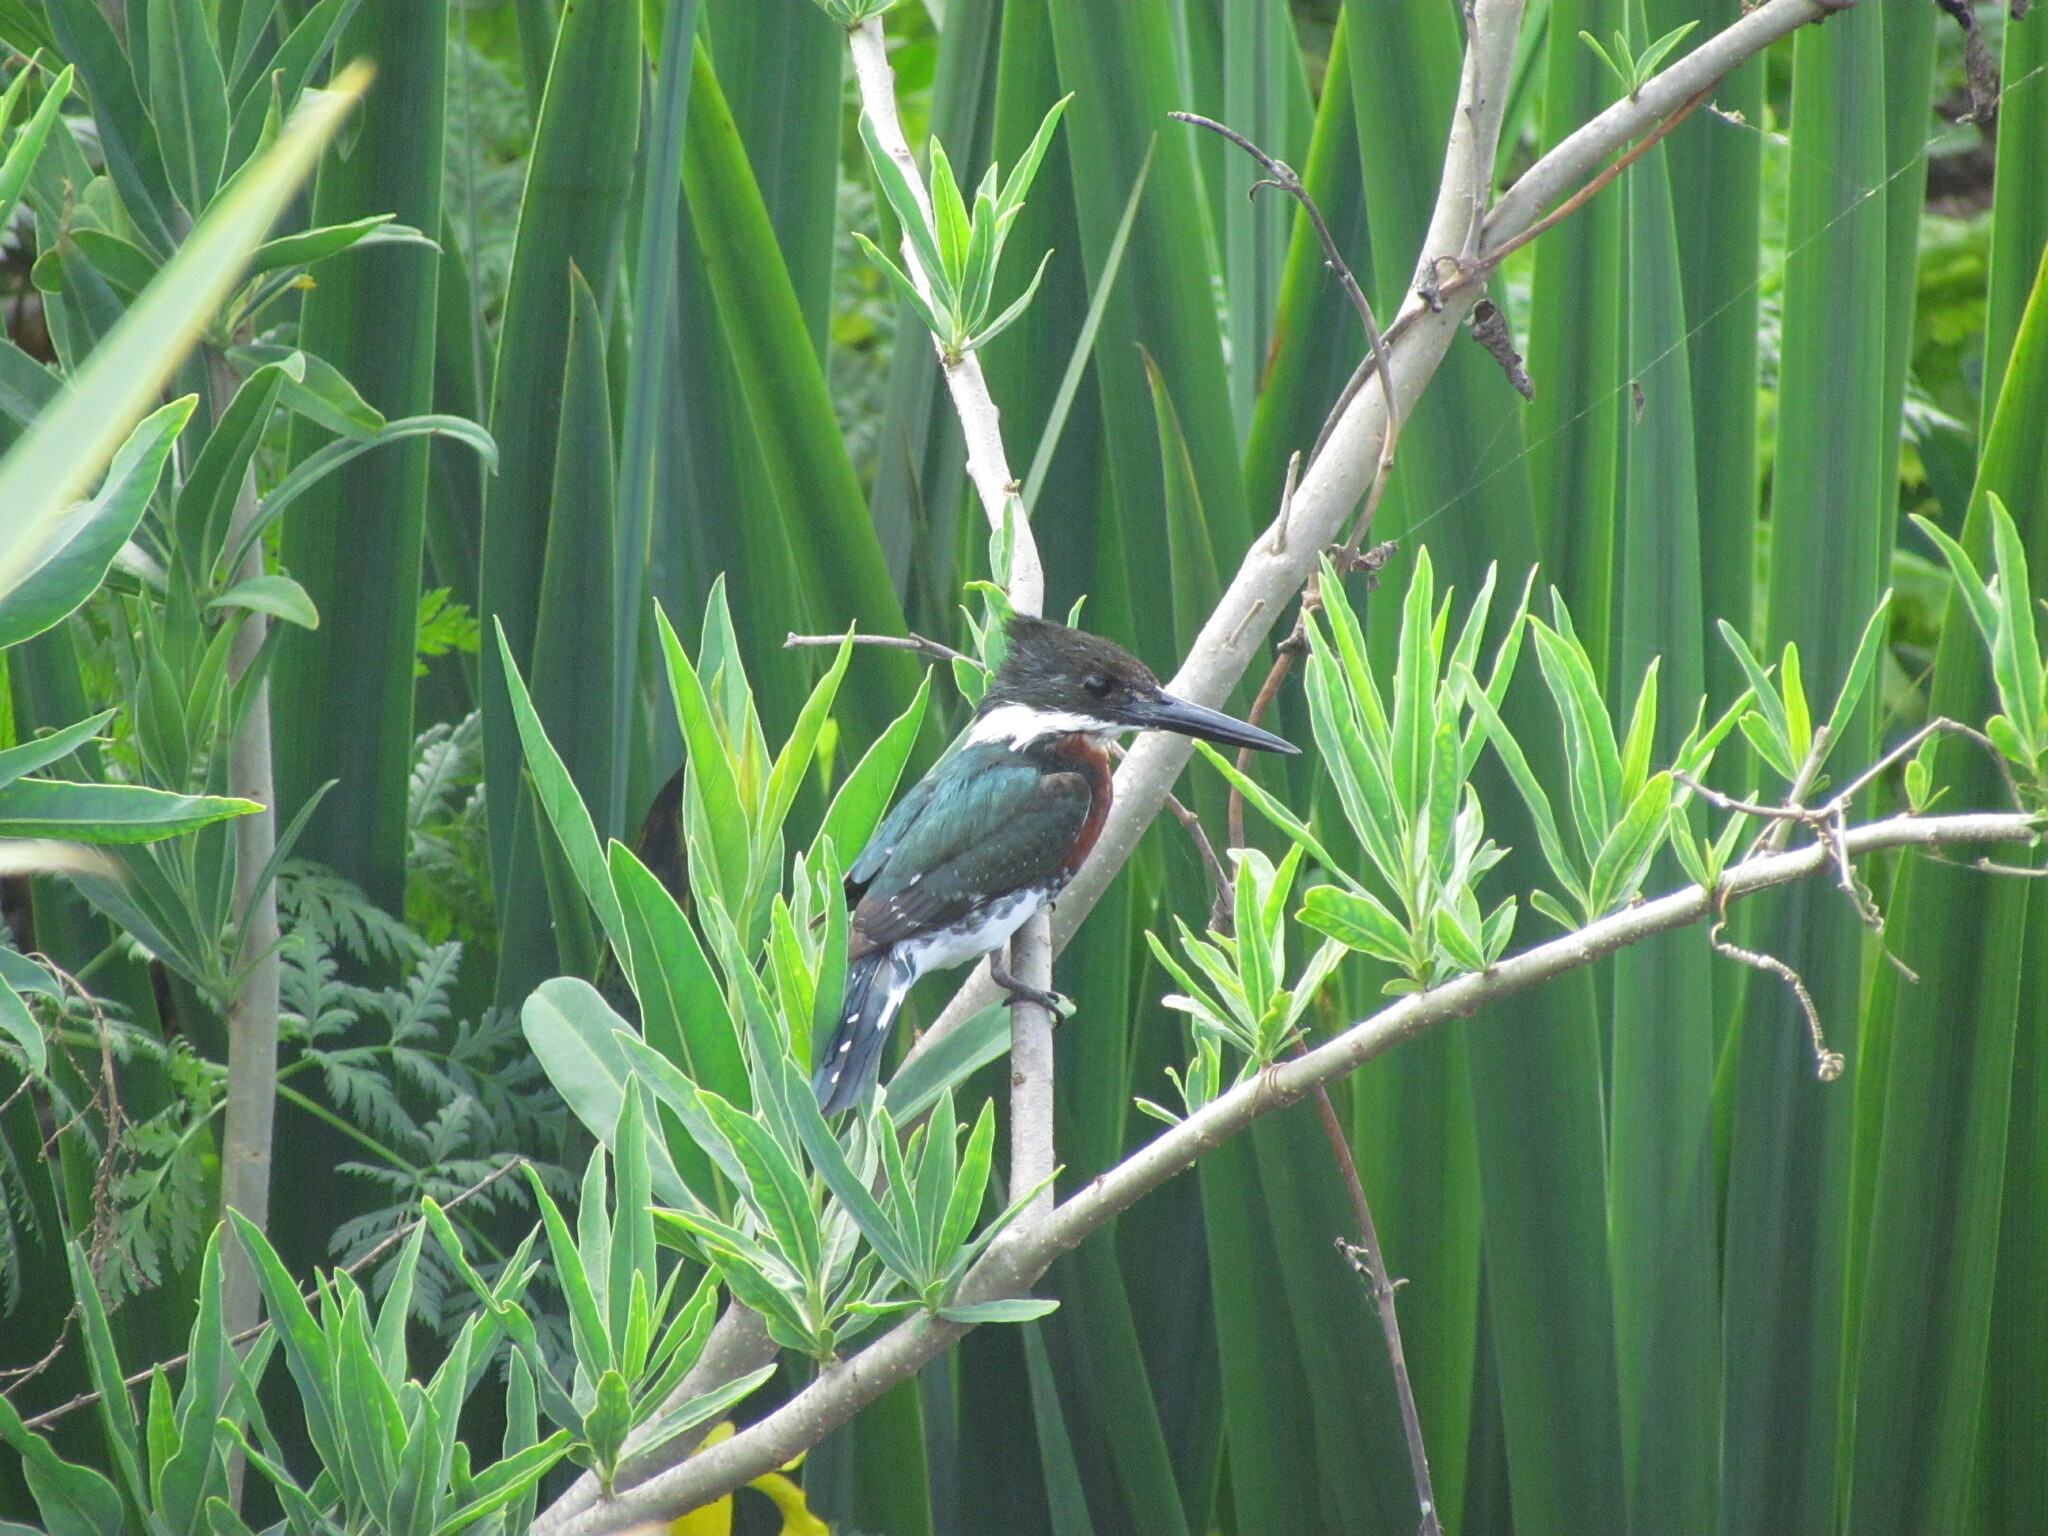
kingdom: Animalia
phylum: Chordata
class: Aves
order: Coraciiformes
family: Alcedinidae
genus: Chloroceryle
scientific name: Chloroceryle americana
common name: Green kingfisher
